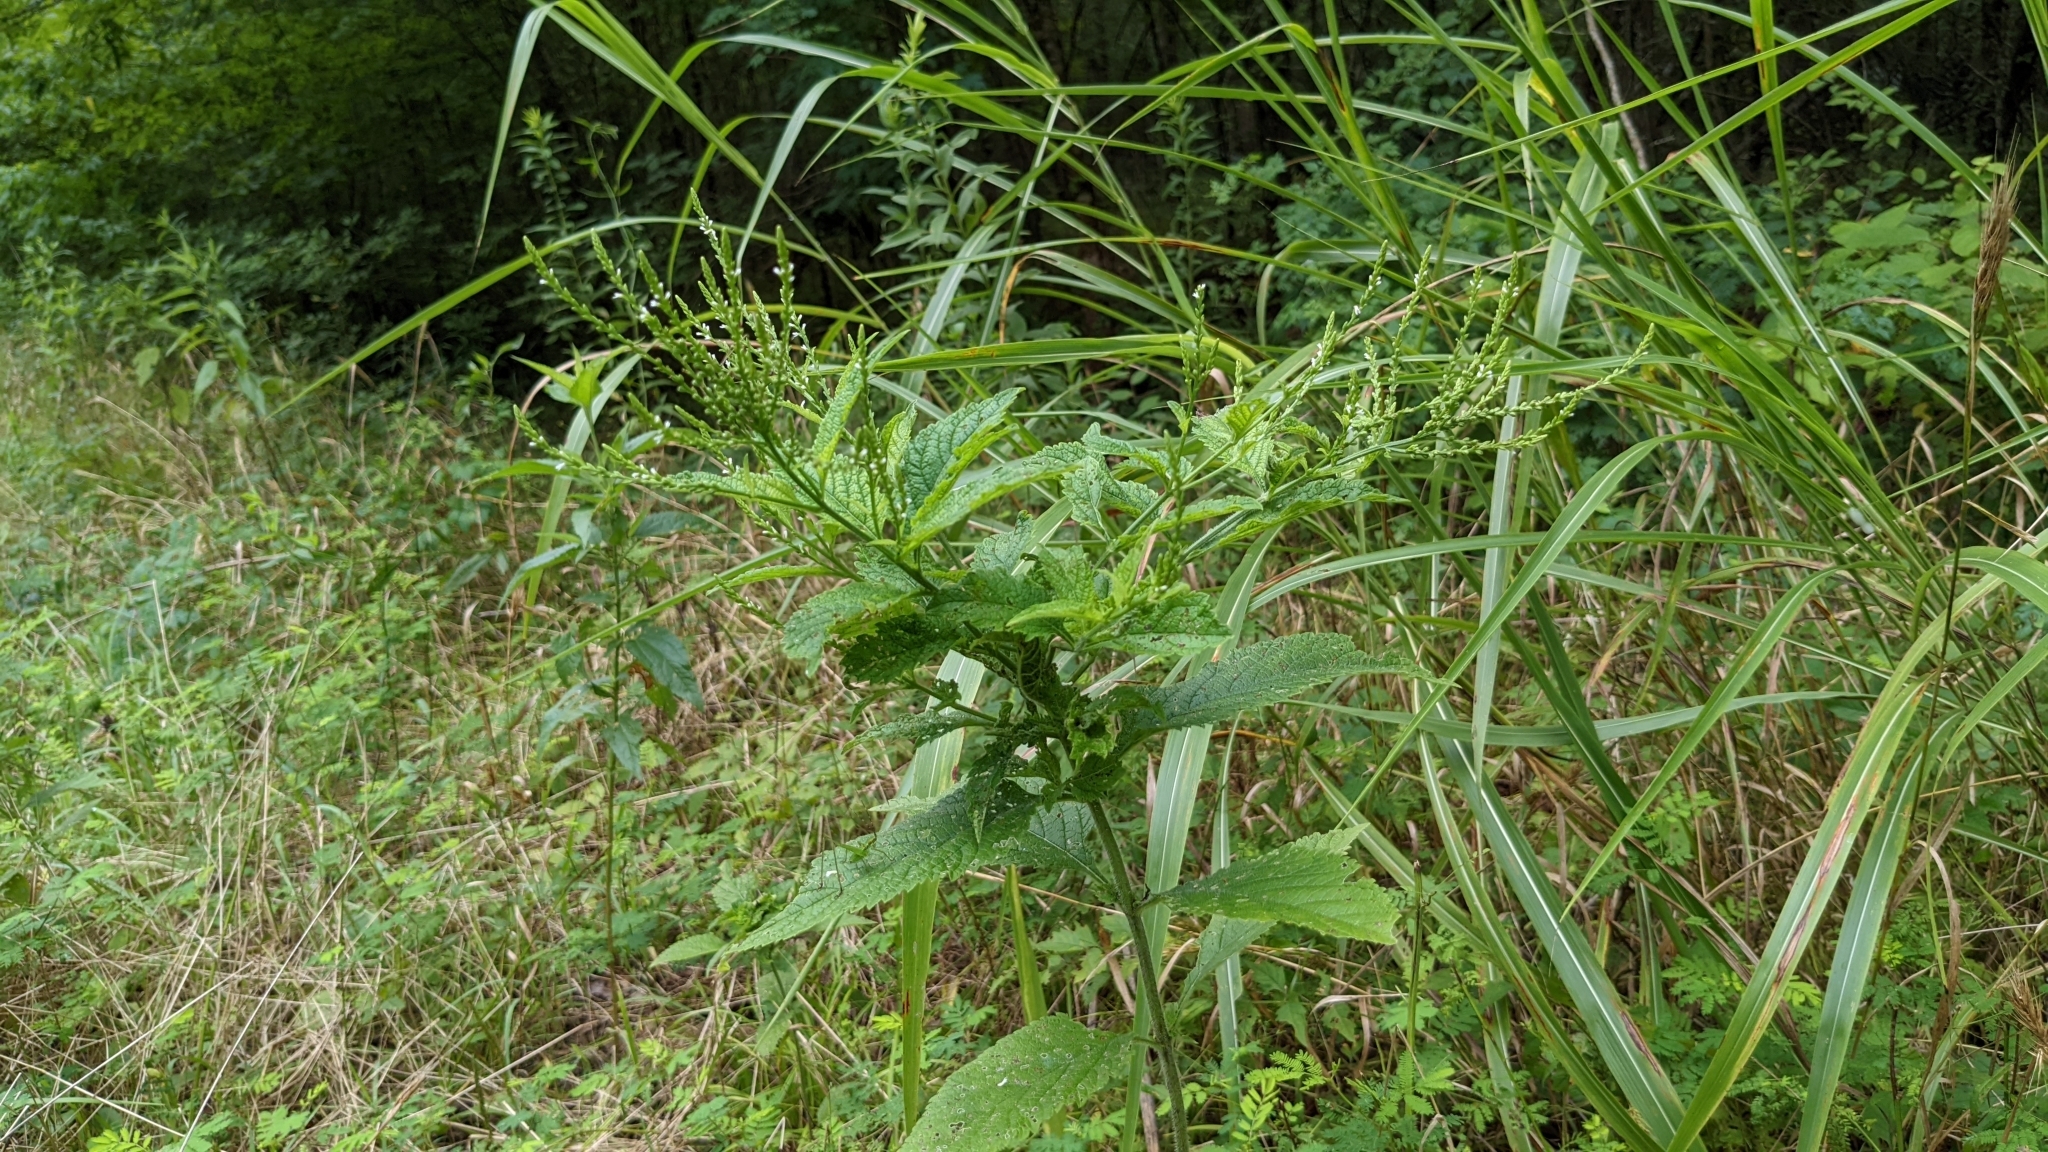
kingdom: Plantae
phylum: Tracheophyta
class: Magnoliopsida
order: Lamiales
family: Verbenaceae
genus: Verbena
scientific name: Verbena urticifolia
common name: Nettle-leaved vervain
